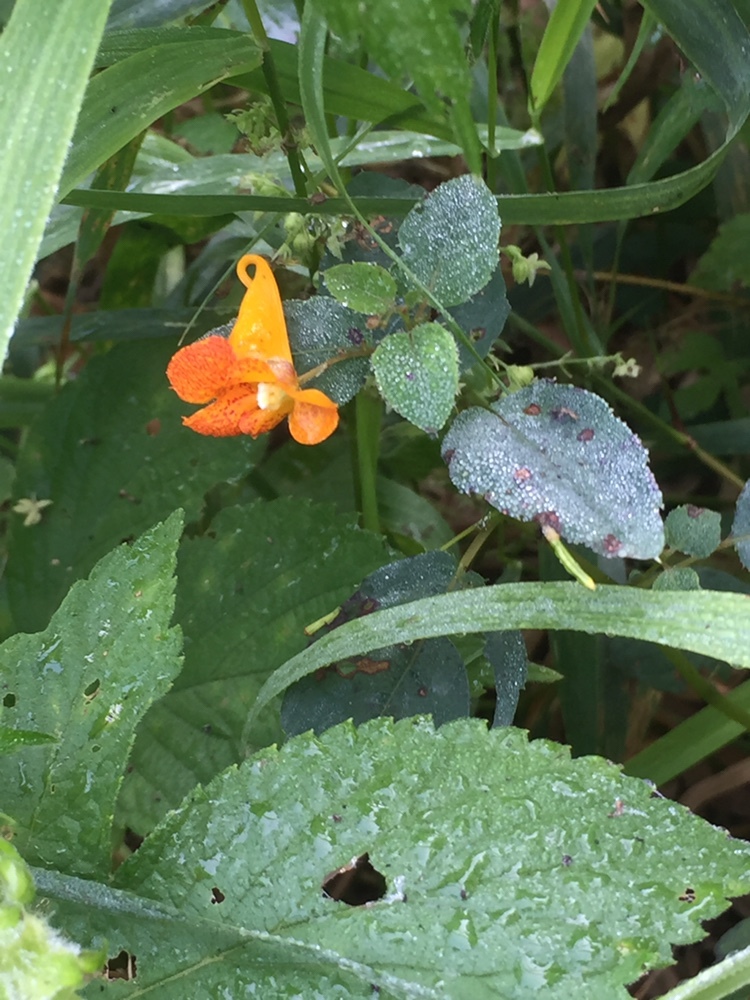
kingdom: Plantae
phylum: Tracheophyta
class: Magnoliopsida
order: Ericales
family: Balsaminaceae
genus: Impatiens
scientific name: Impatiens capensis
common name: Orange balsam
